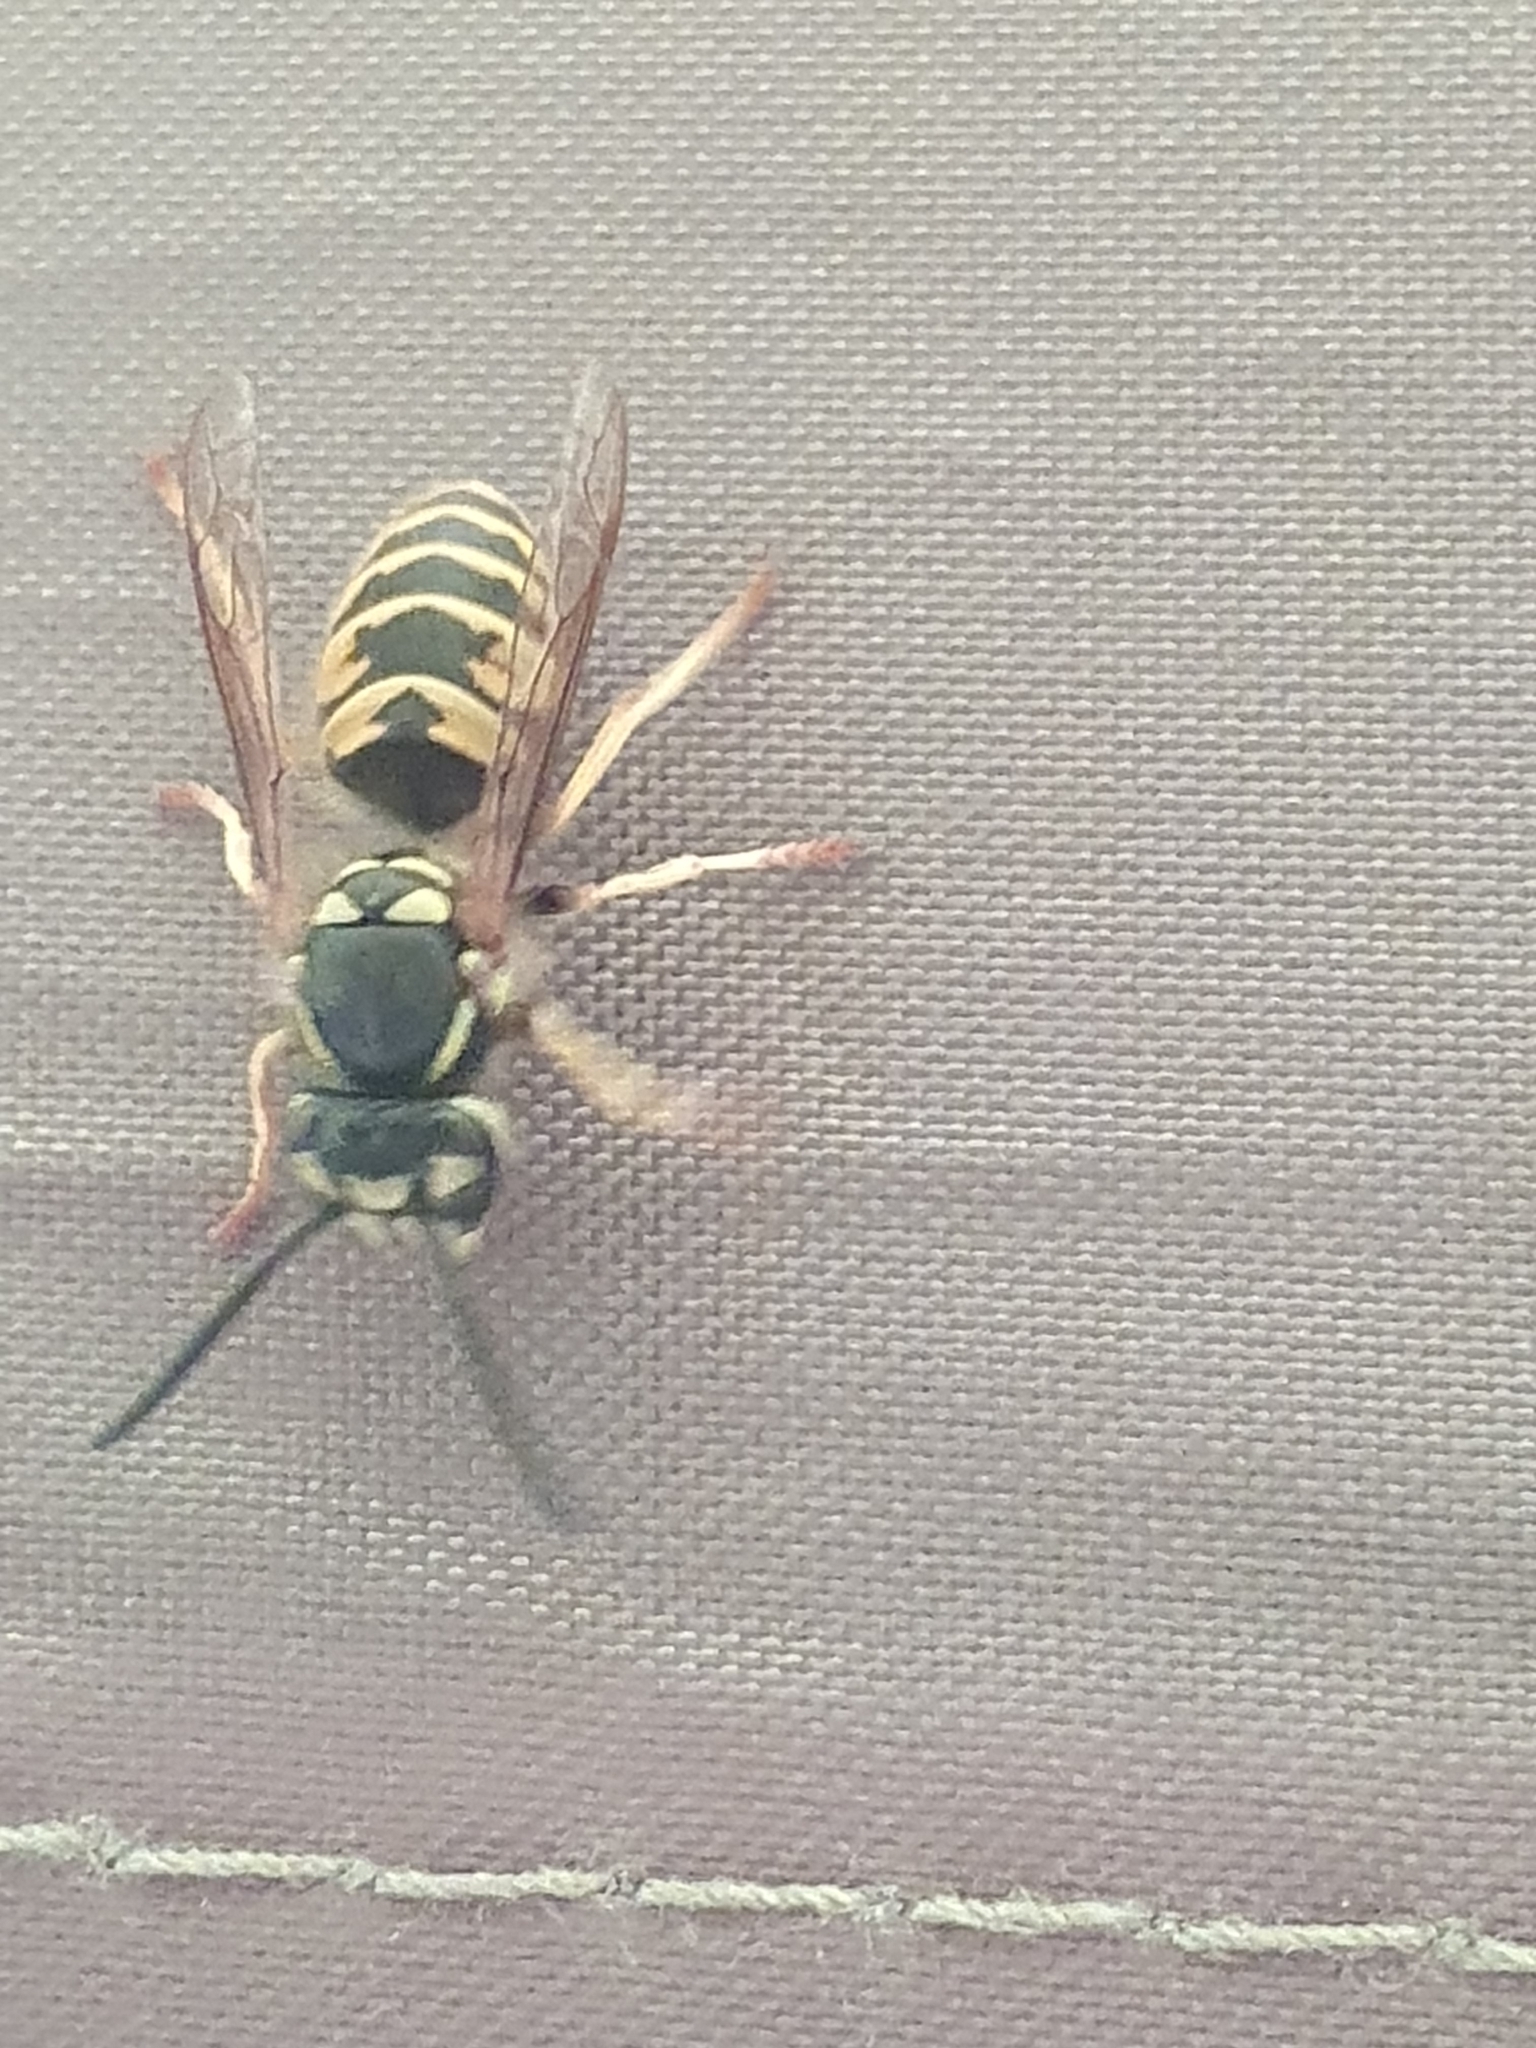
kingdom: Animalia
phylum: Arthropoda
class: Insecta
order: Hymenoptera
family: Vespidae
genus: Vespula
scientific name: Vespula vulgaris
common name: Common wasp
